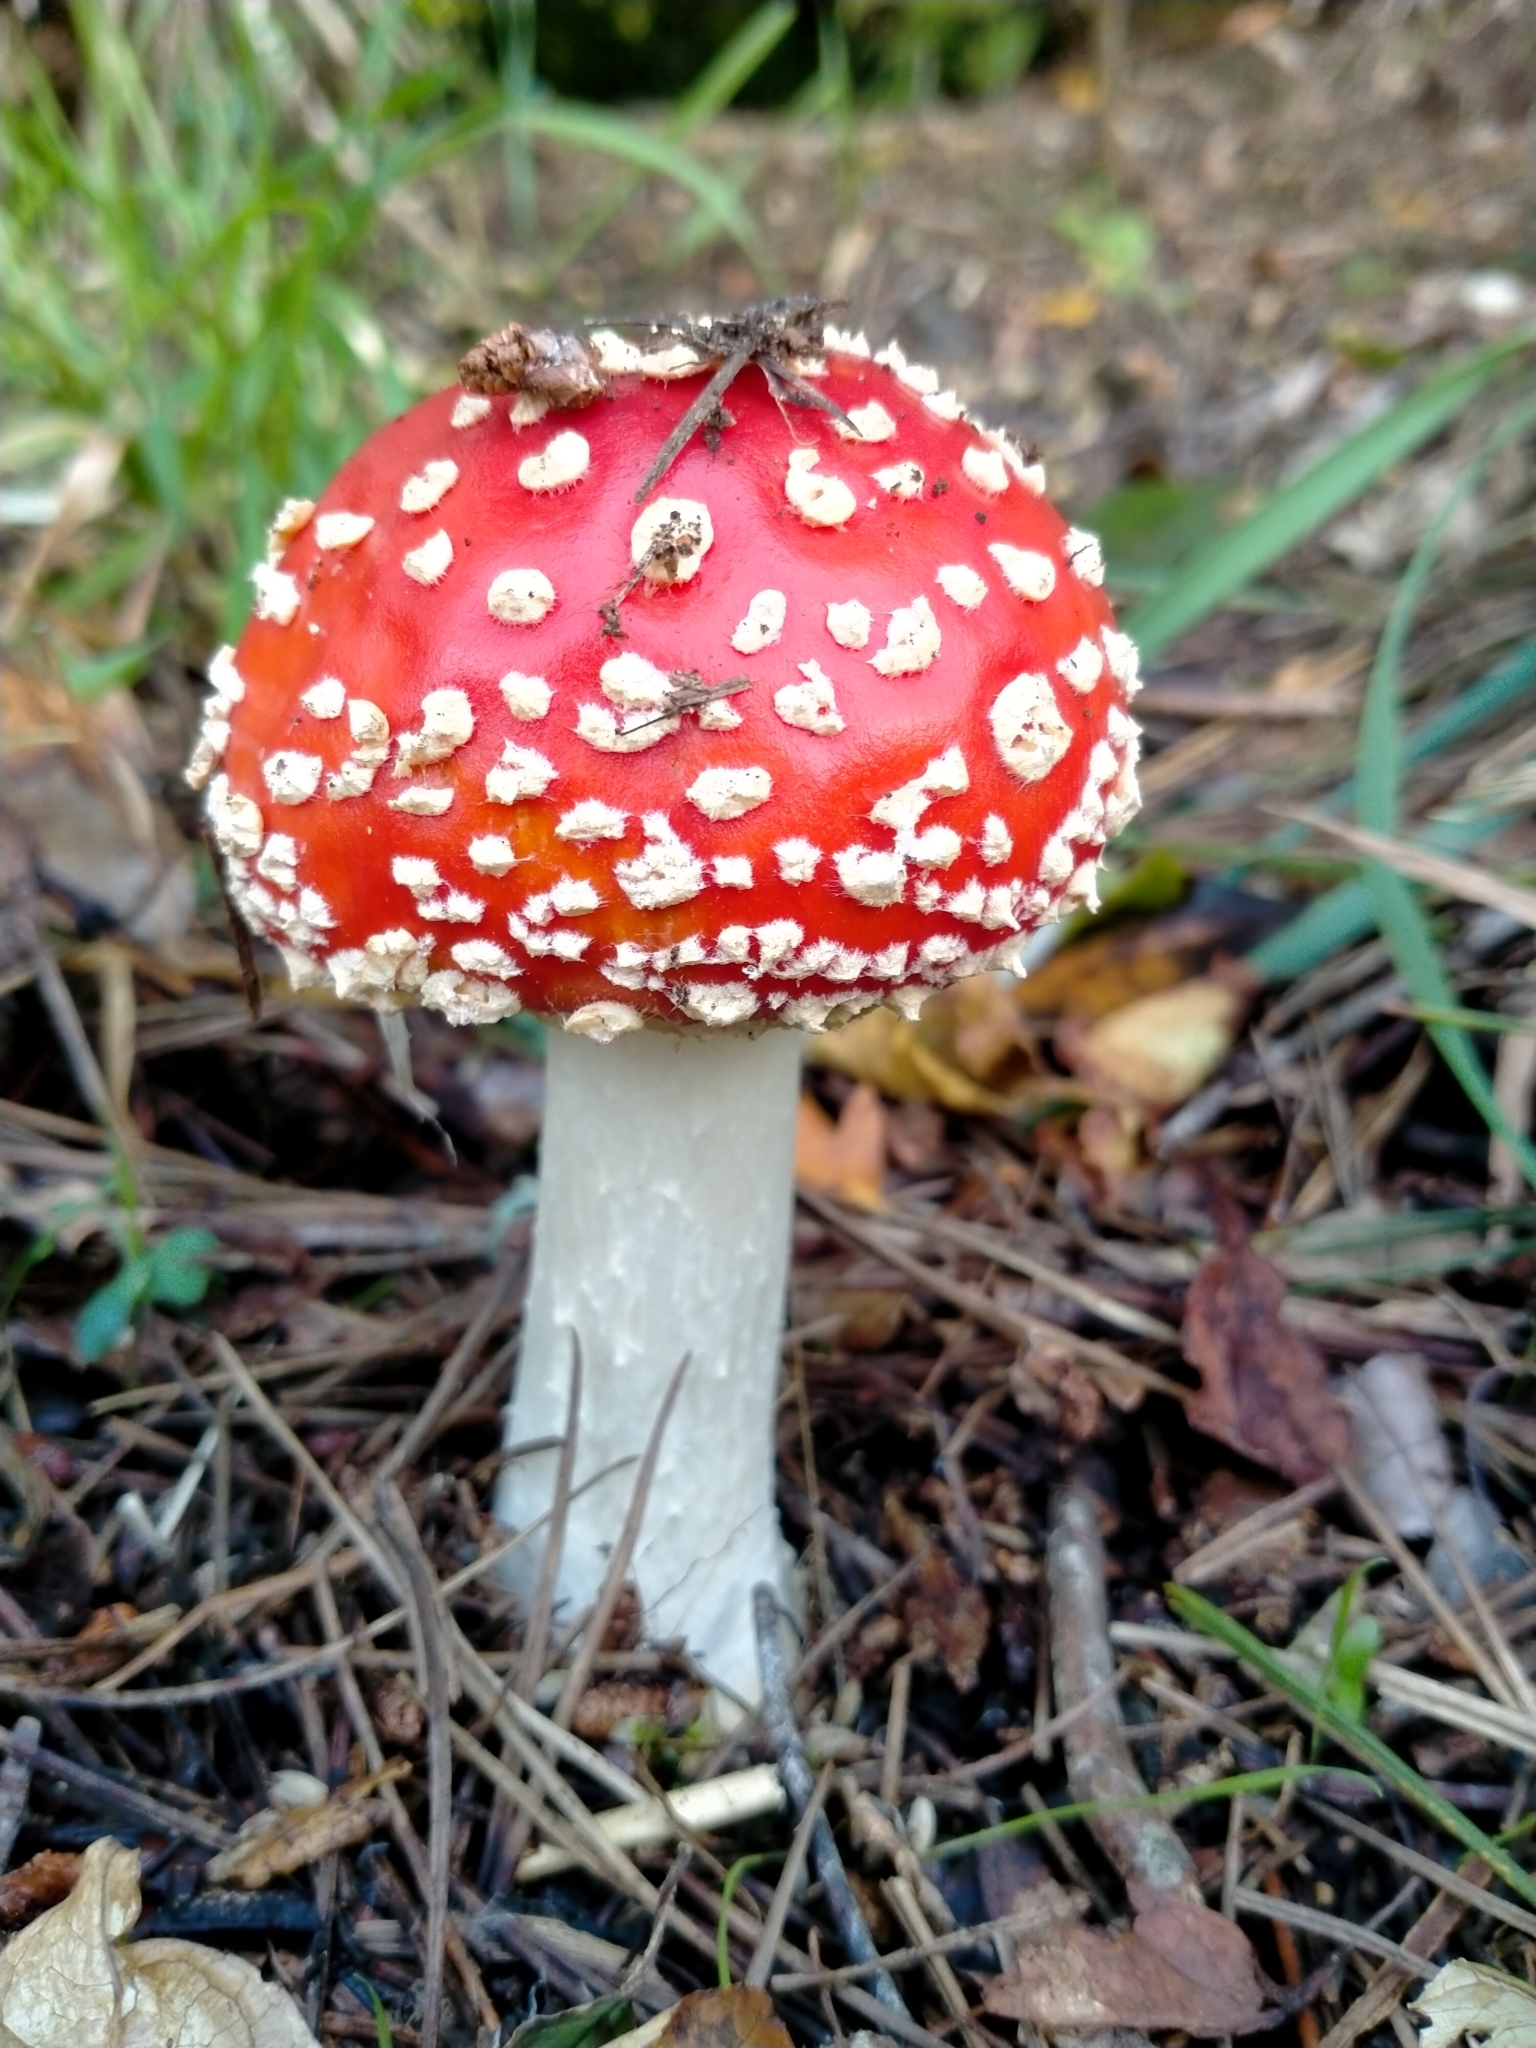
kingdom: Fungi
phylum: Basidiomycota
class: Agaricomycetes
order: Agaricales
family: Amanitaceae
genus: Amanita
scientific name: Amanita muscaria
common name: Fly agaric
